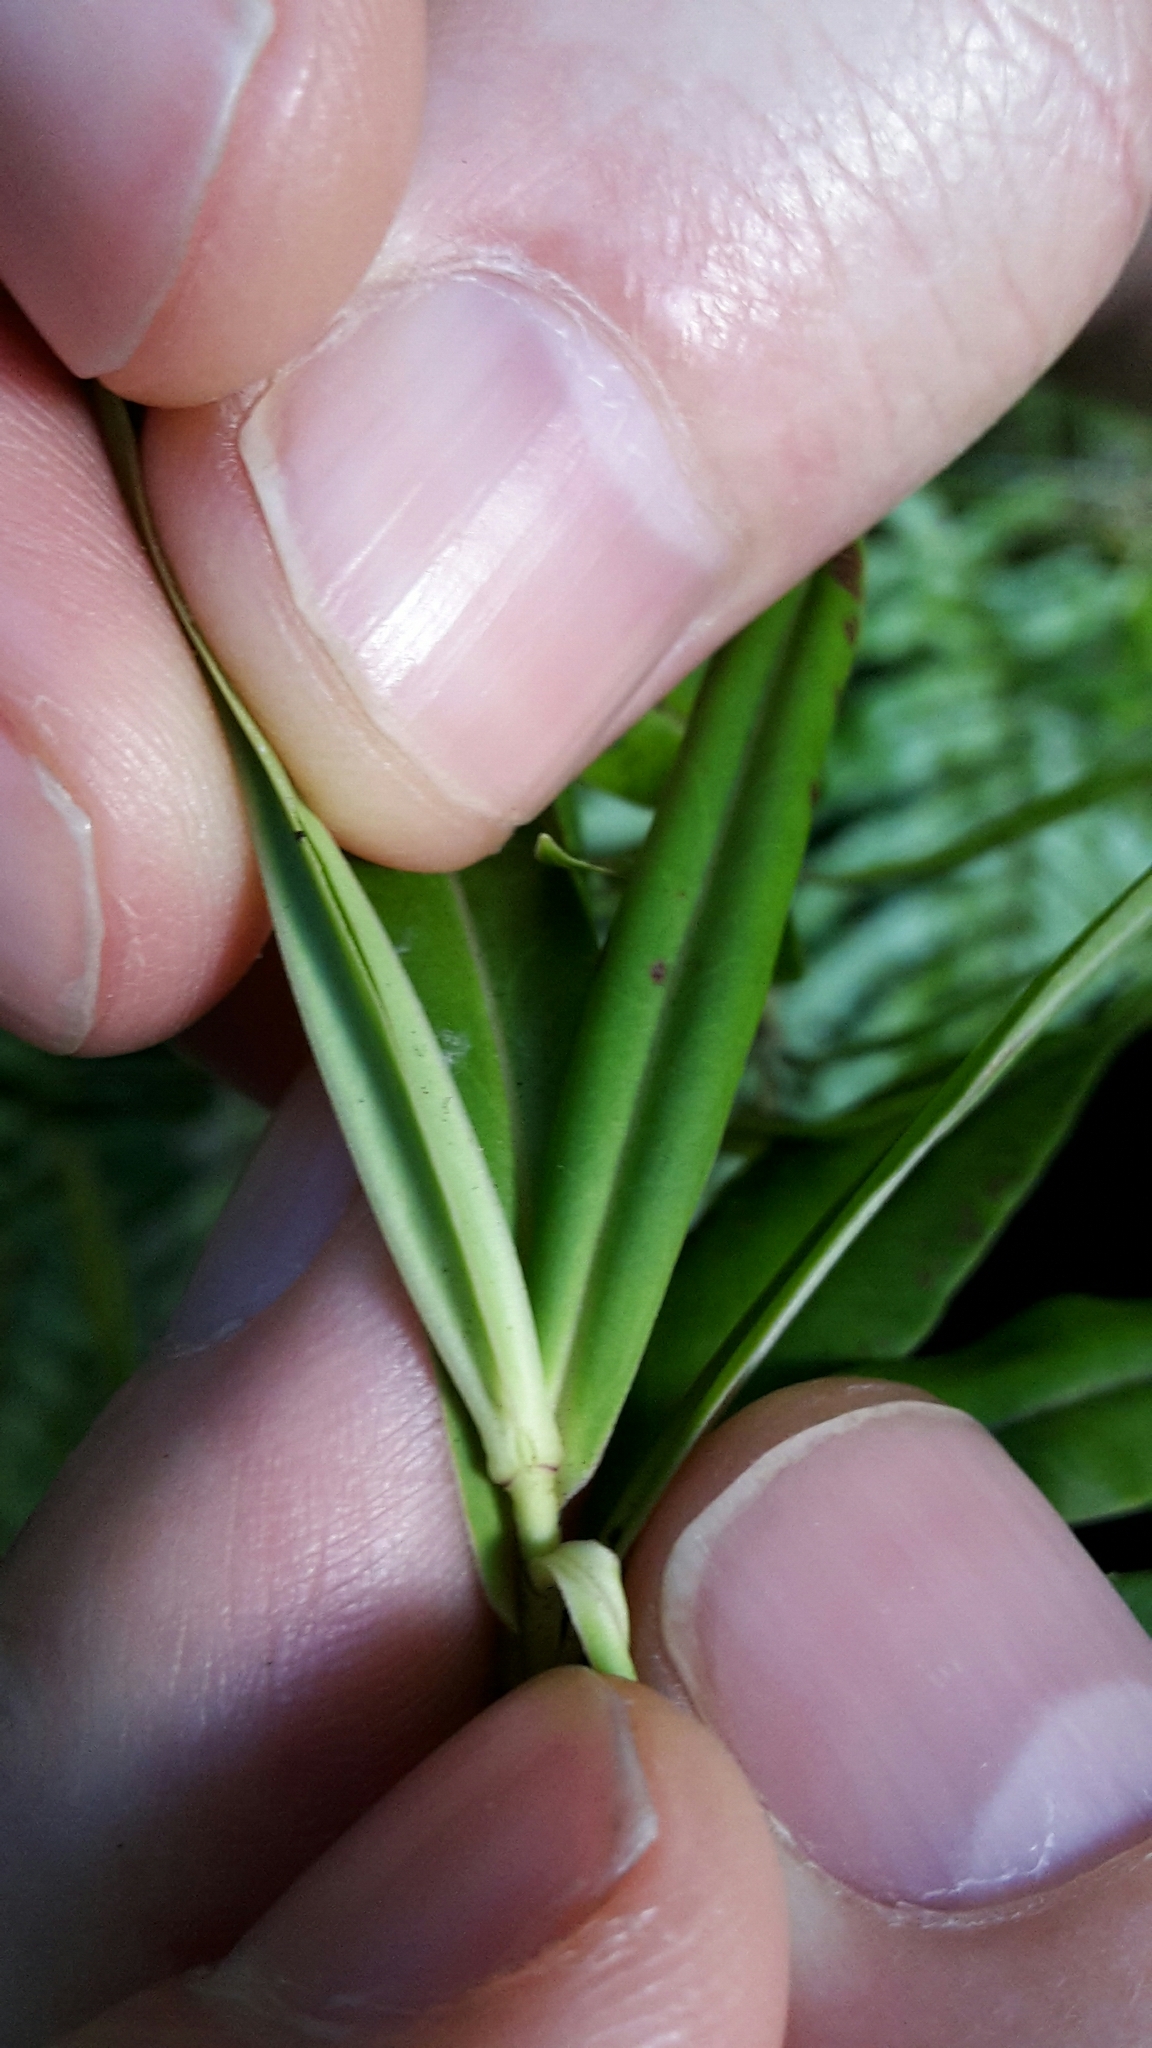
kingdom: Plantae
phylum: Tracheophyta
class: Magnoliopsida
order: Lamiales
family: Plantaginaceae
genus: Veronica
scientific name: Veronica salicifolia
